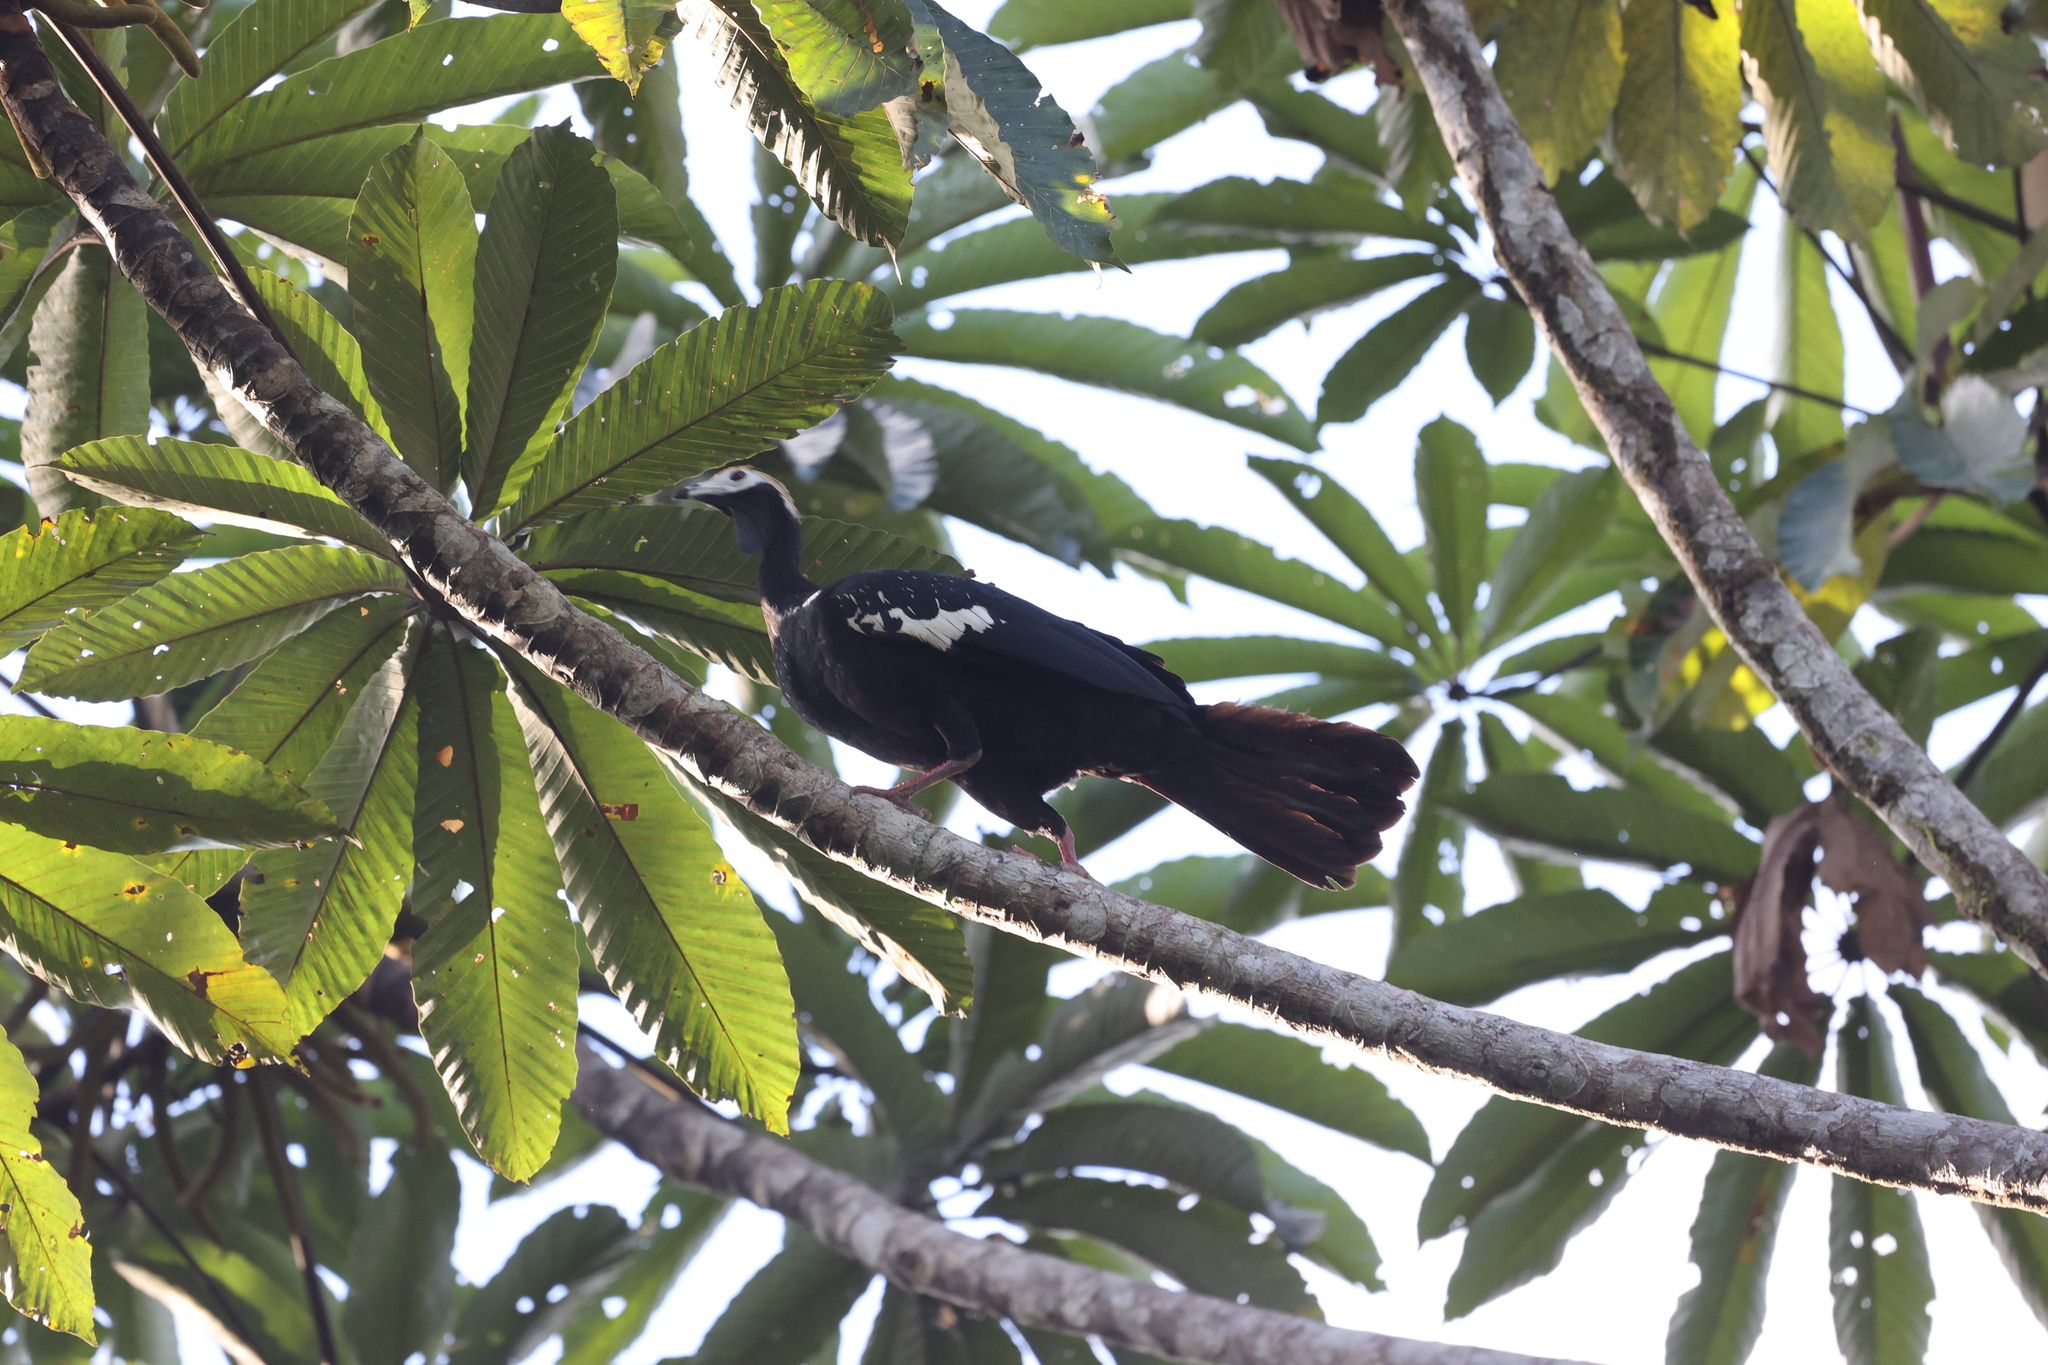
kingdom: Animalia
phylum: Chordata
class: Aves
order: Galliformes
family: Cracidae
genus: Pipile
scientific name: Pipile cumanensis
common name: Blue-throated piping-guan
